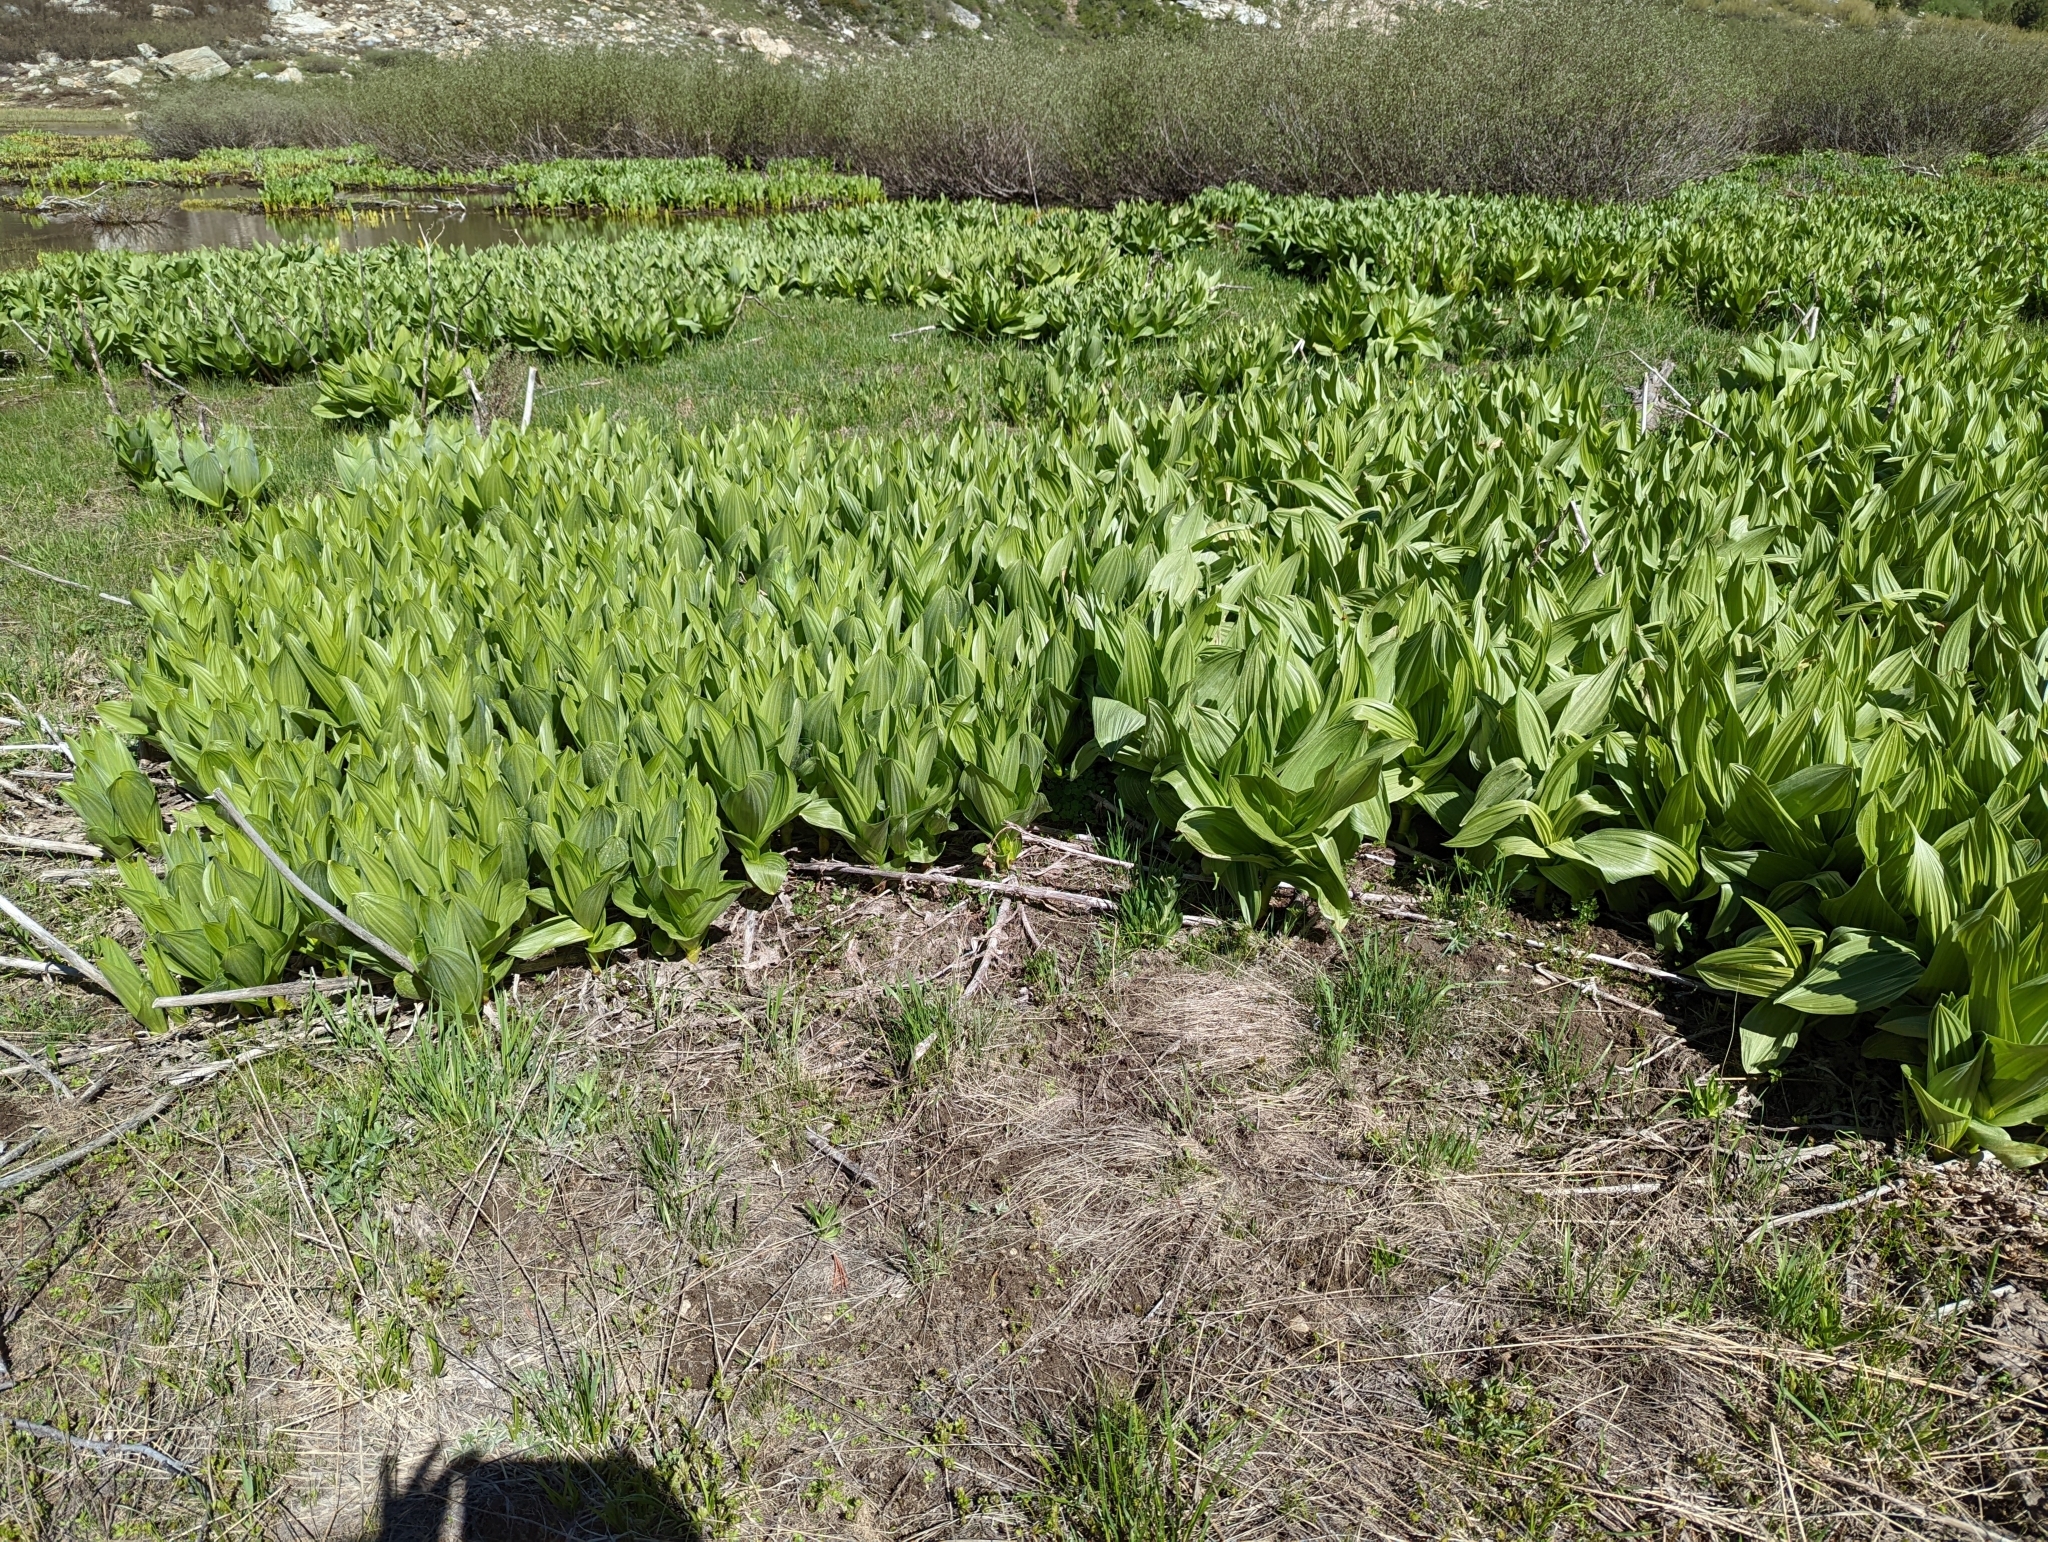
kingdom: Plantae
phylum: Tracheophyta
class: Liliopsida
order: Liliales
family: Melanthiaceae
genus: Veratrum
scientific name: Veratrum californicum
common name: California veratrum
